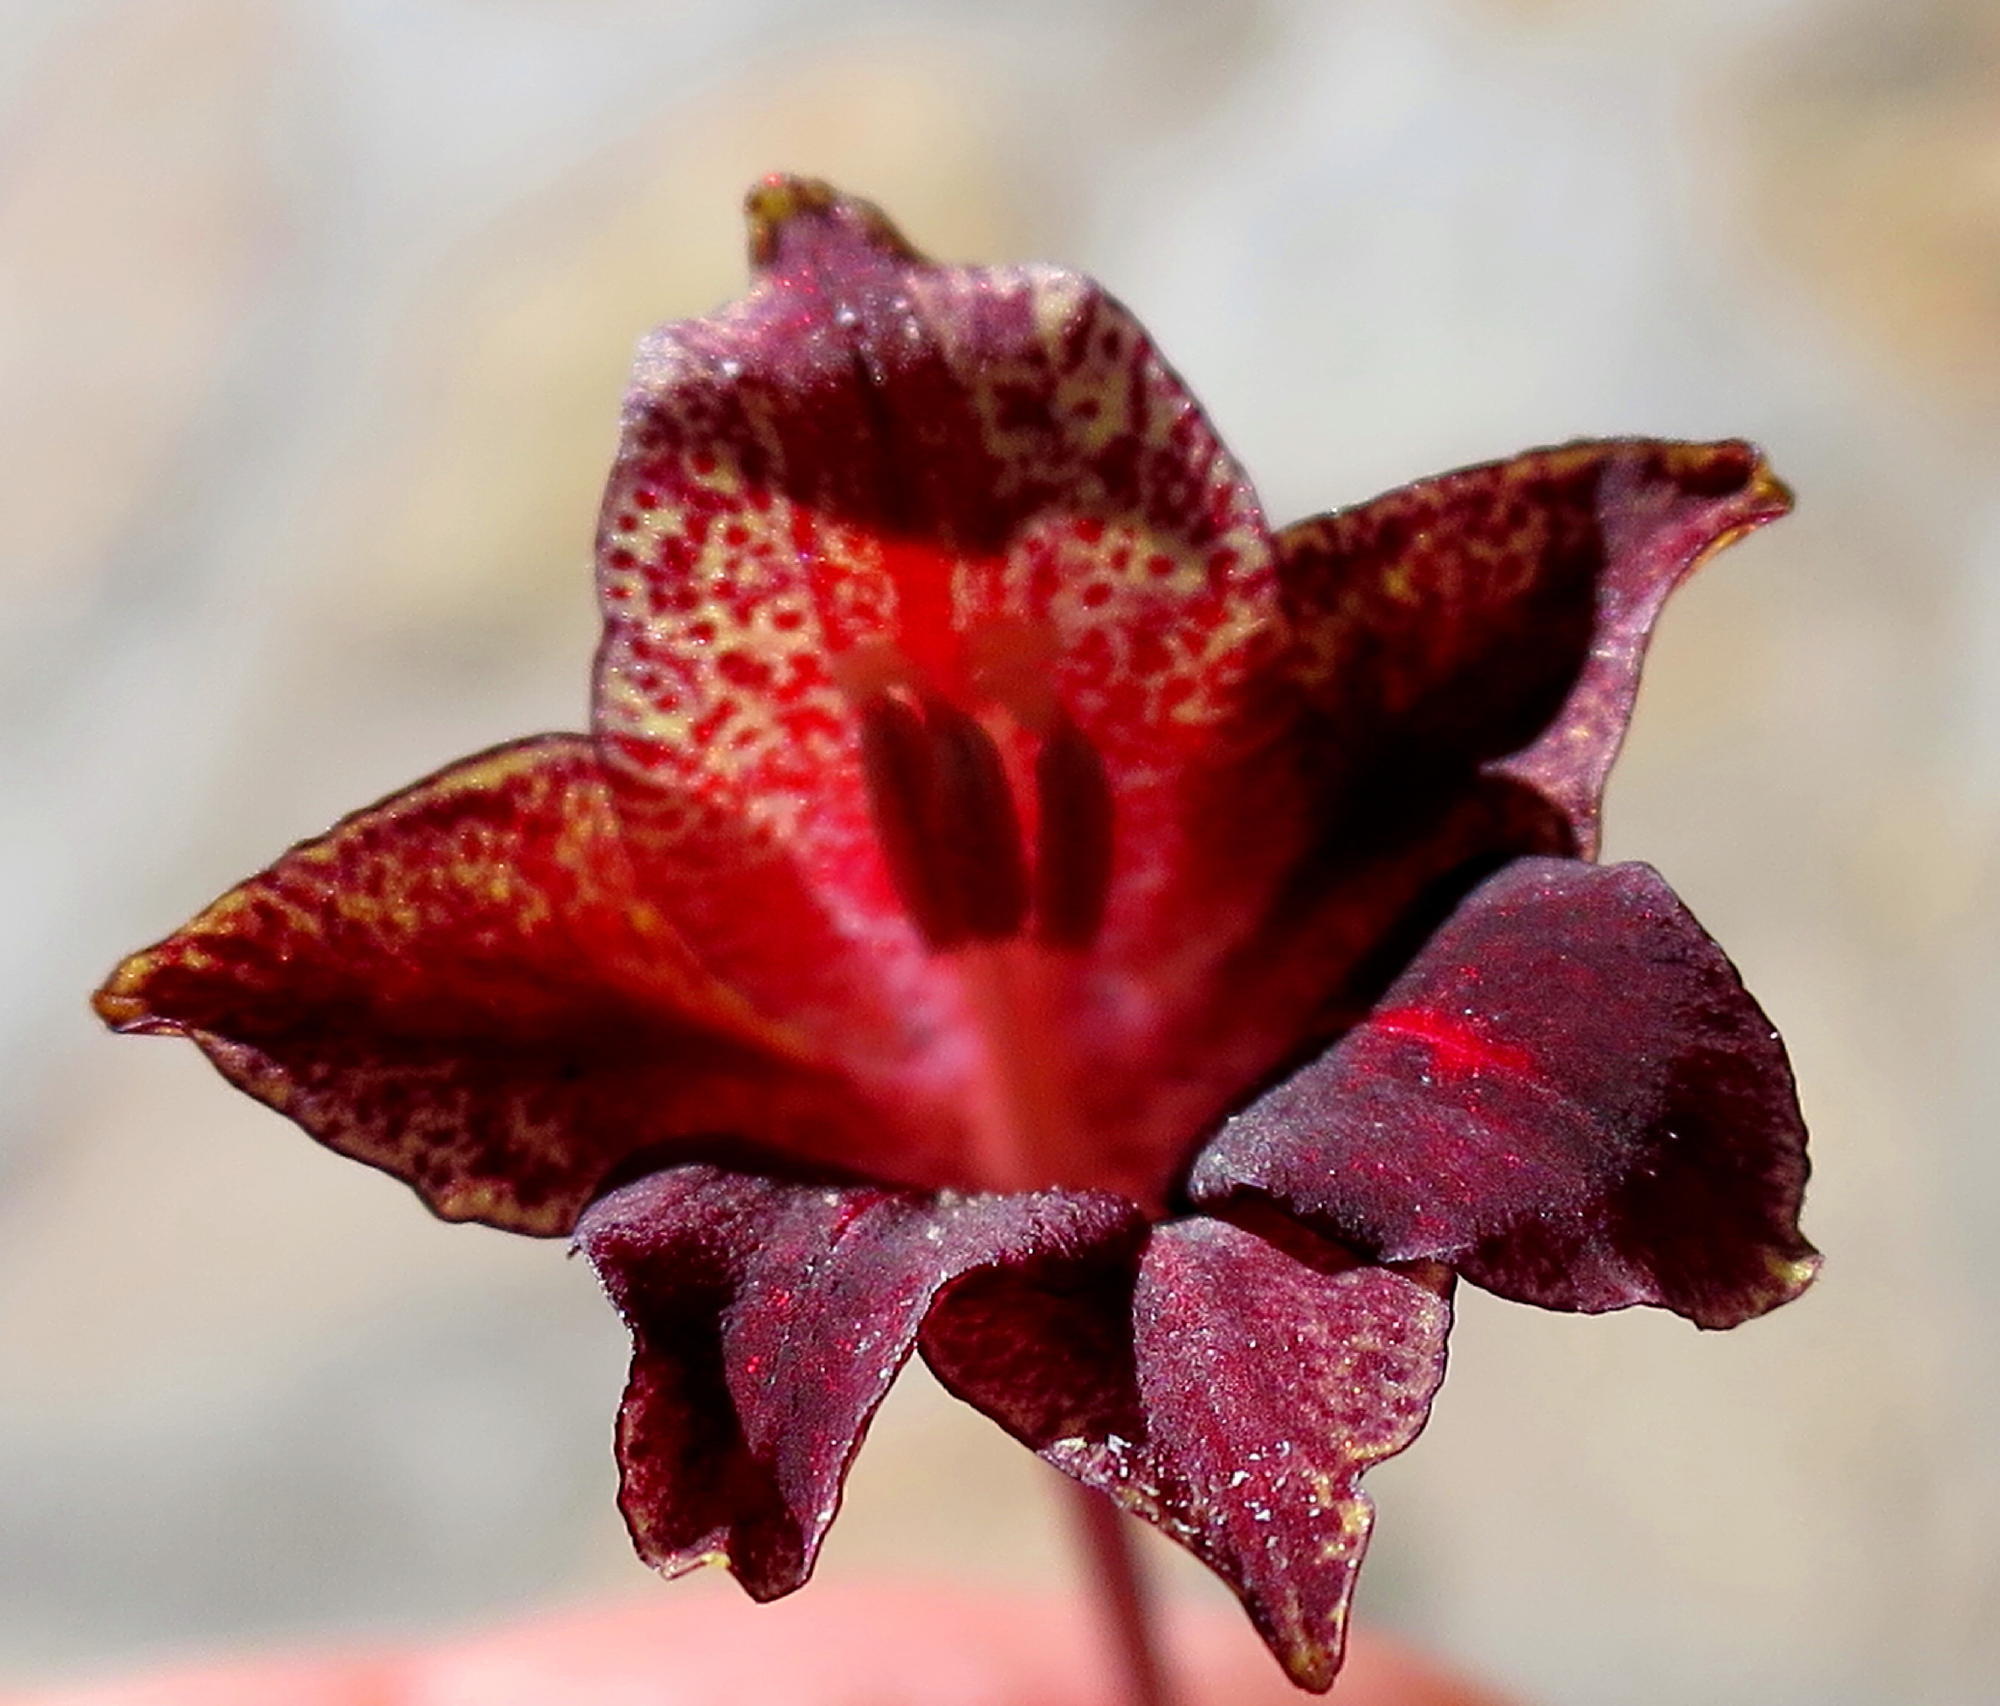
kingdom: Plantae
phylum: Tracheophyta
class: Liliopsida
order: Asparagales
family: Iridaceae
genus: Gladiolus
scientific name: Gladiolus maculatus
